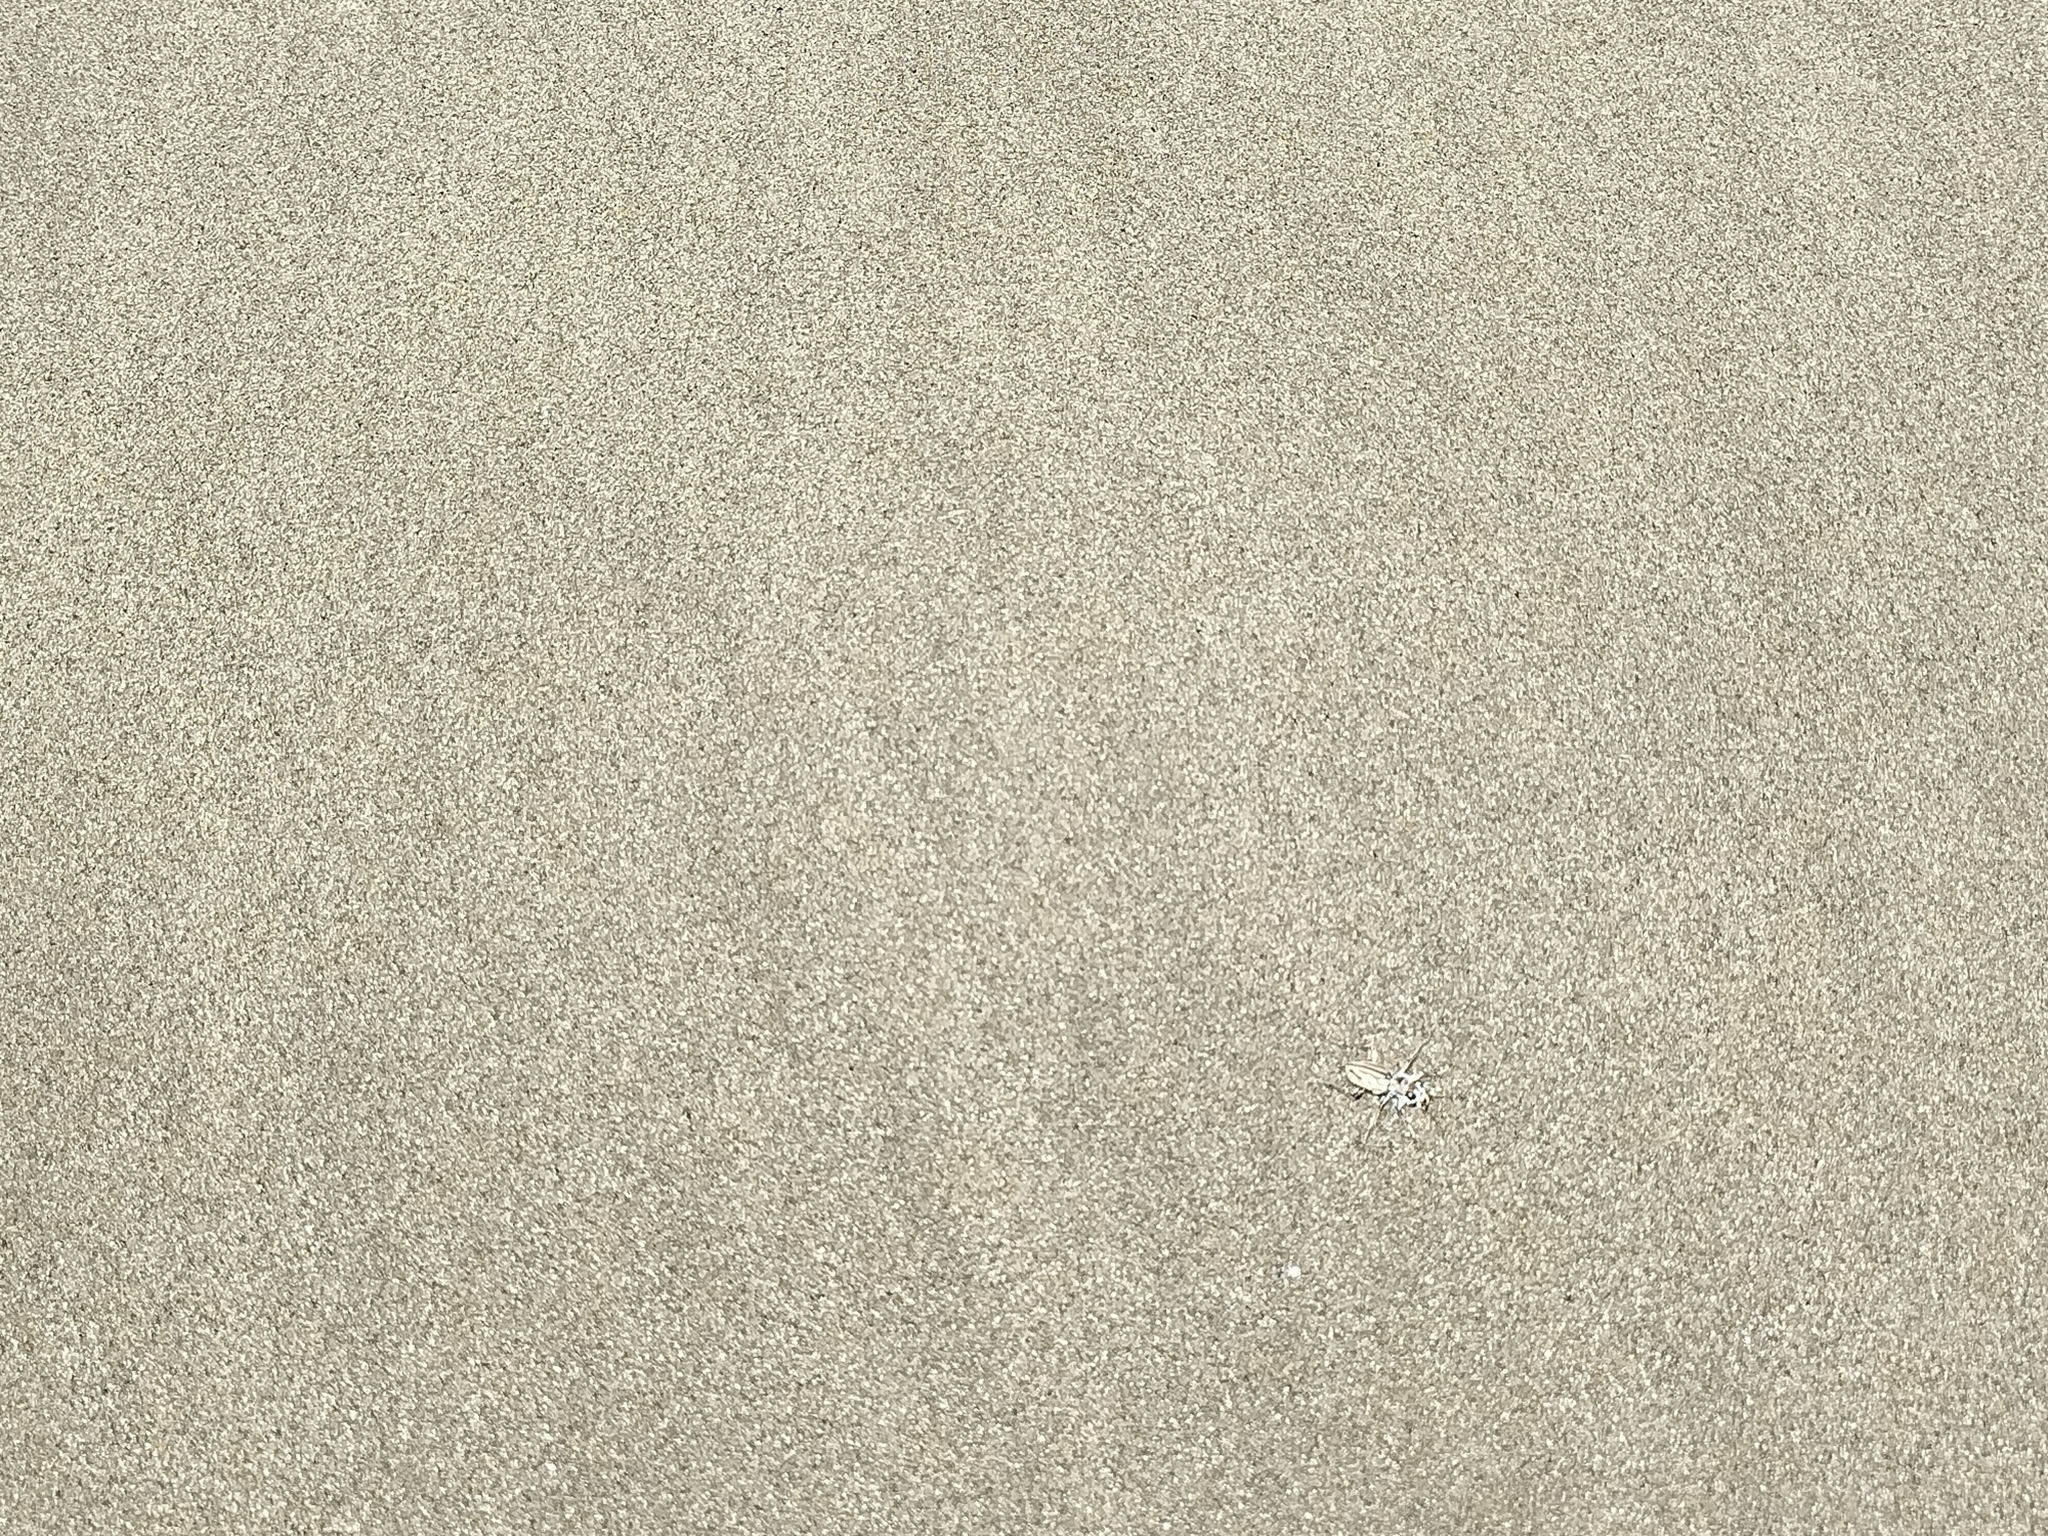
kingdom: Animalia
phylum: Arthropoda
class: Insecta
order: Coleoptera
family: Carabidae
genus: Habrodera
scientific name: Habrodera capensis
